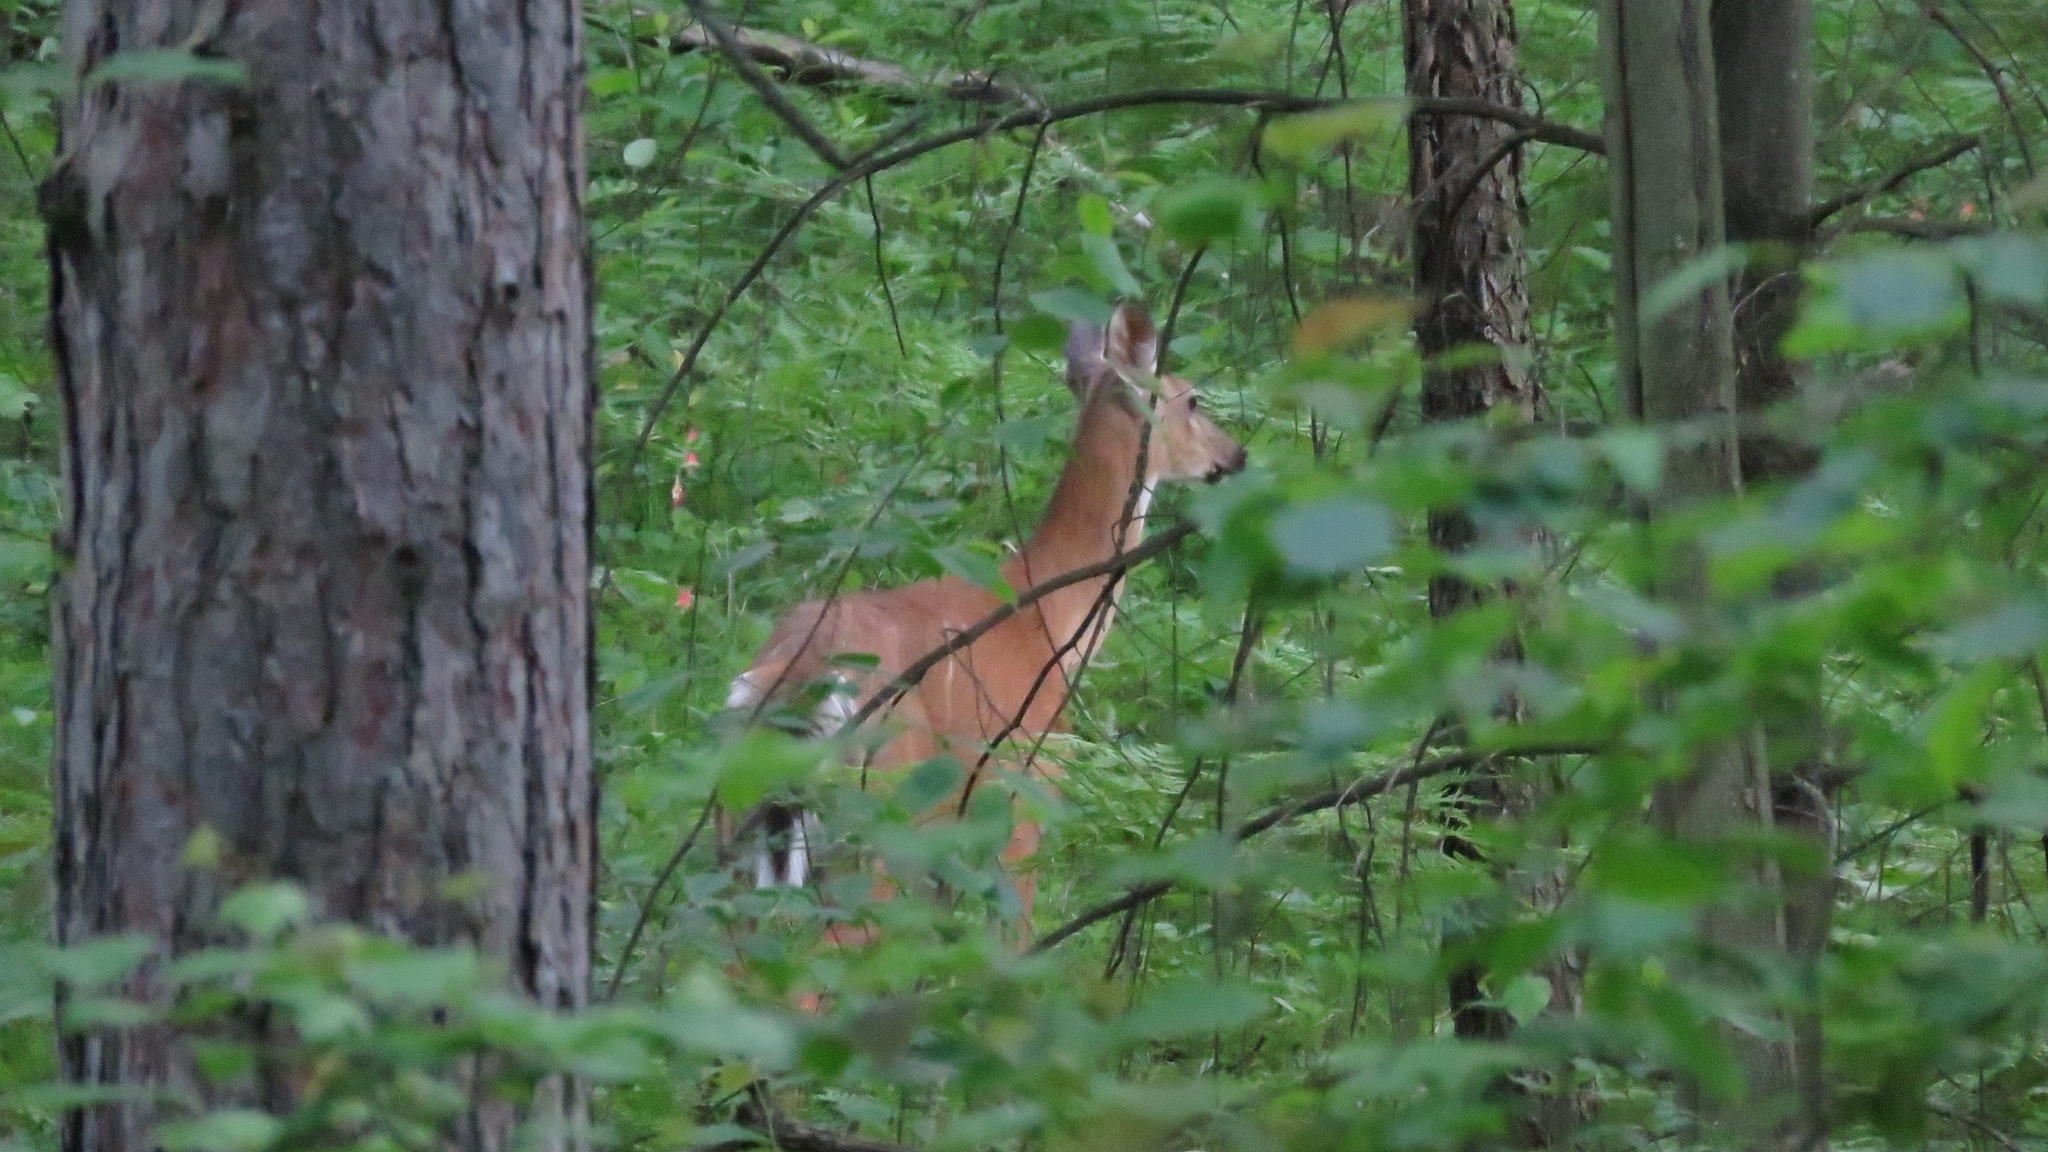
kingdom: Animalia
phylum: Chordata
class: Mammalia
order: Artiodactyla
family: Cervidae
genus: Odocoileus
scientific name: Odocoileus virginianus
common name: White-tailed deer
